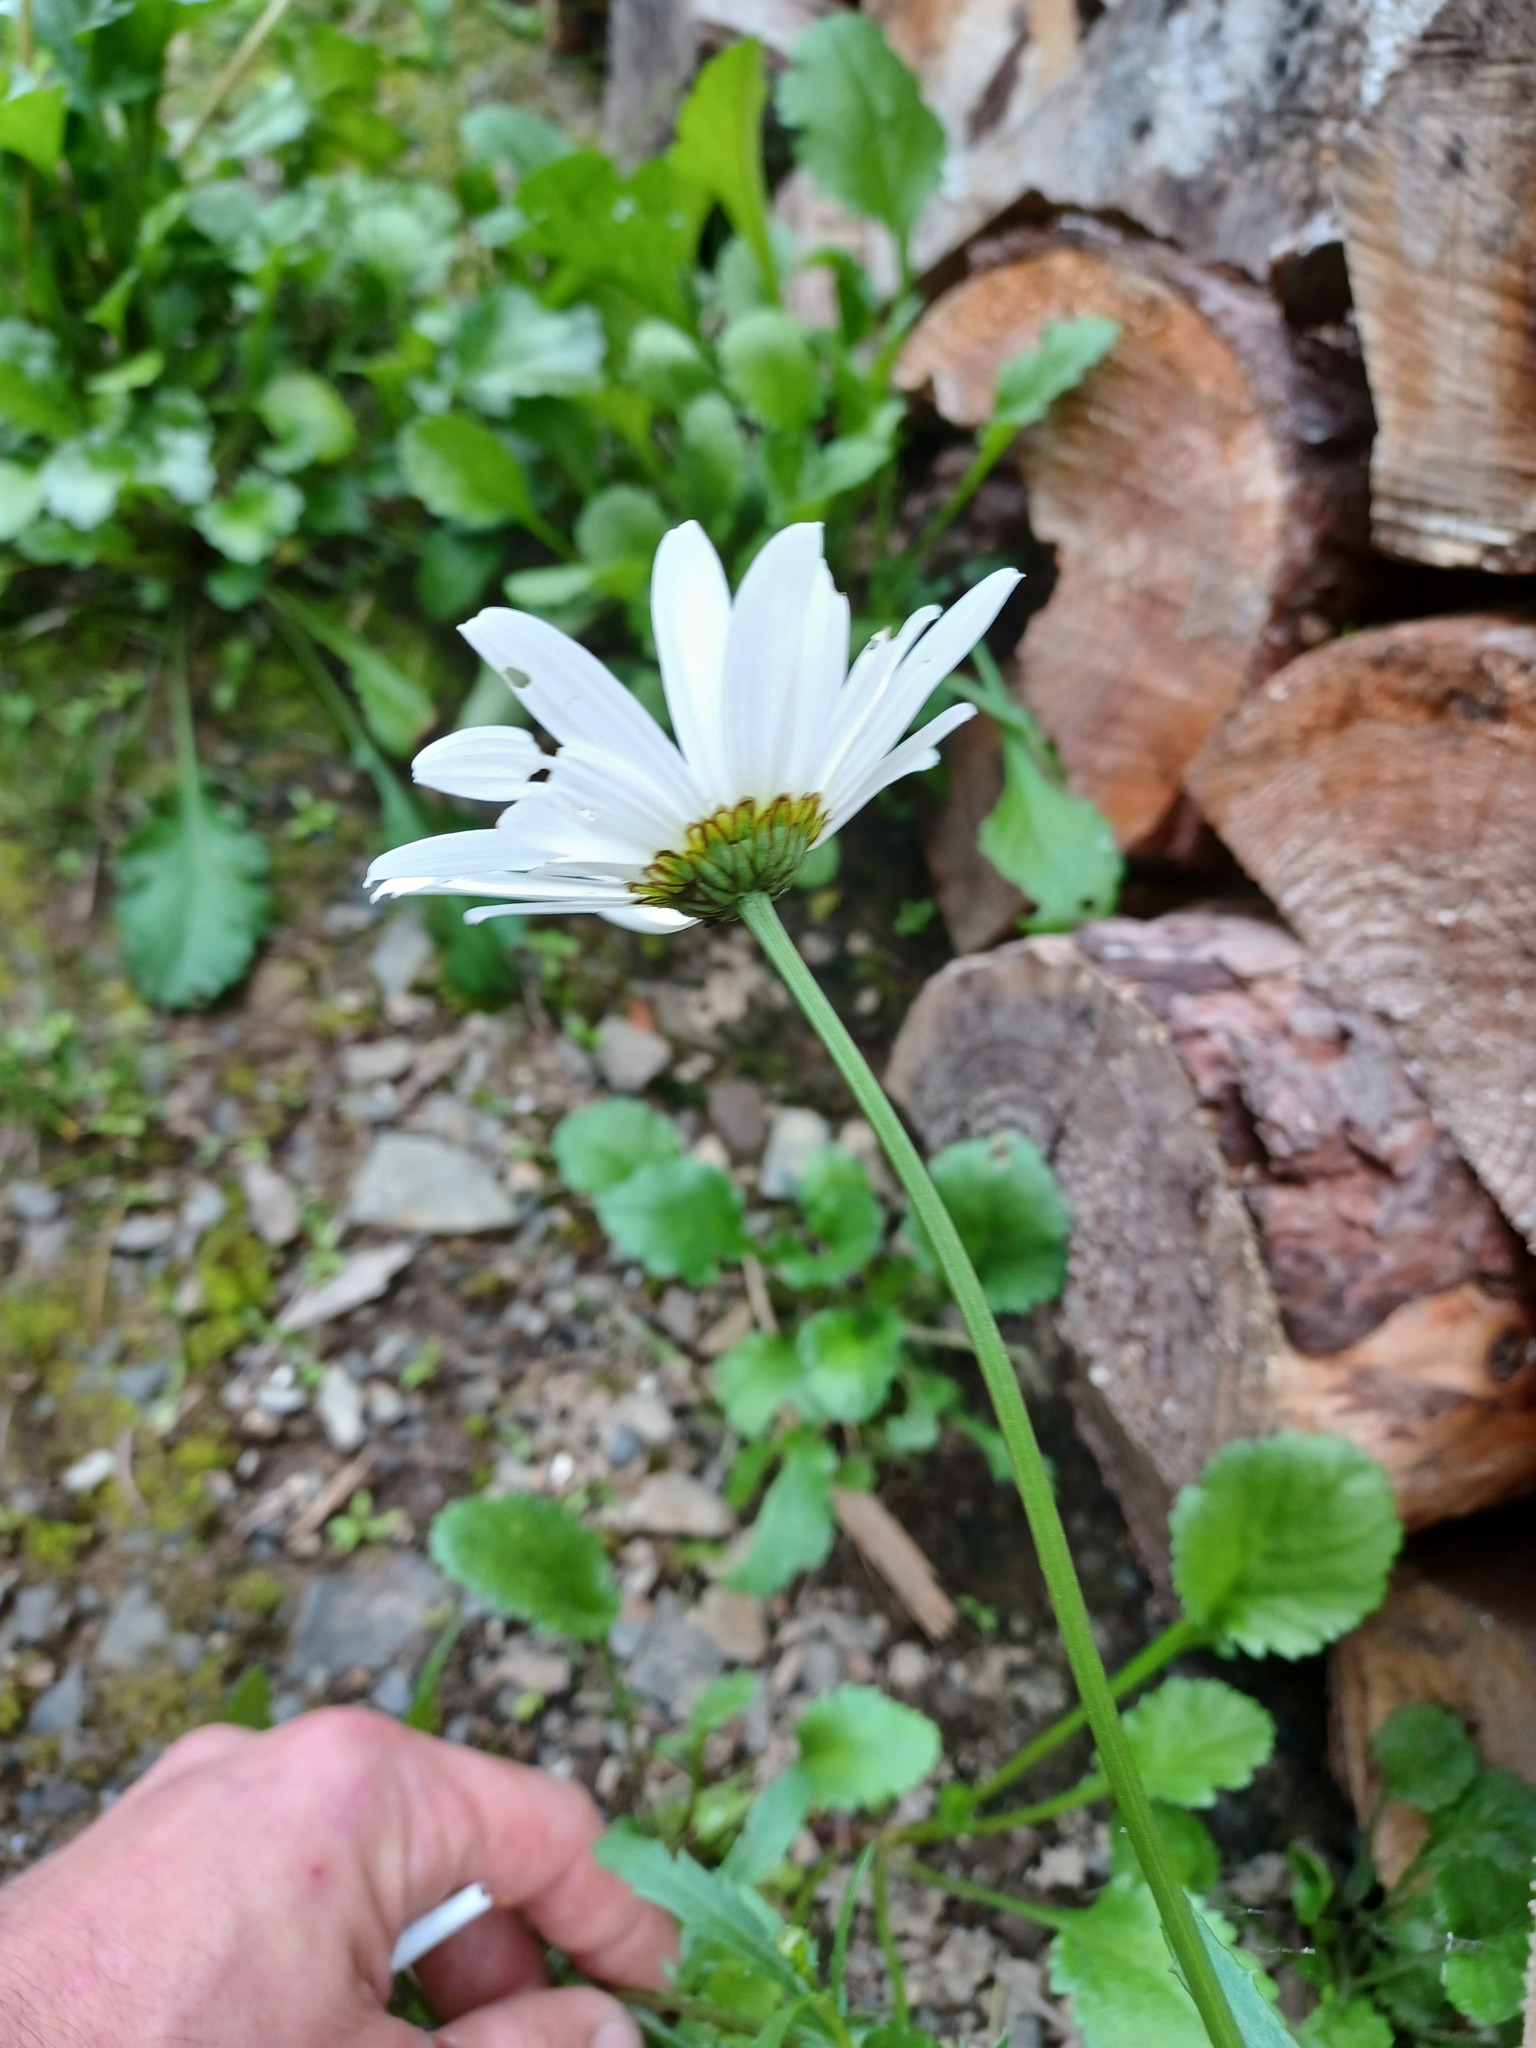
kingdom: Plantae
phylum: Tracheophyta
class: Magnoliopsida
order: Asterales
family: Asteraceae
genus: Leucanthemum
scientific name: Leucanthemum vulgare
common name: Oxeye daisy
